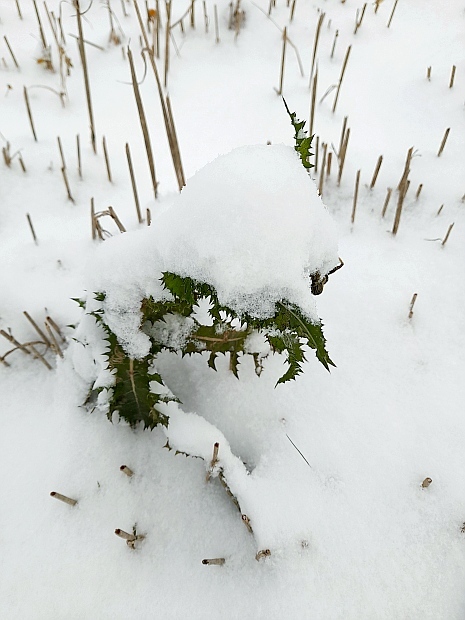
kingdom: Plantae
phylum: Tracheophyta
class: Magnoliopsida
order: Asterales
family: Asteraceae
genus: Sonchus
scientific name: Sonchus asper
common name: Prickly sow-thistle
